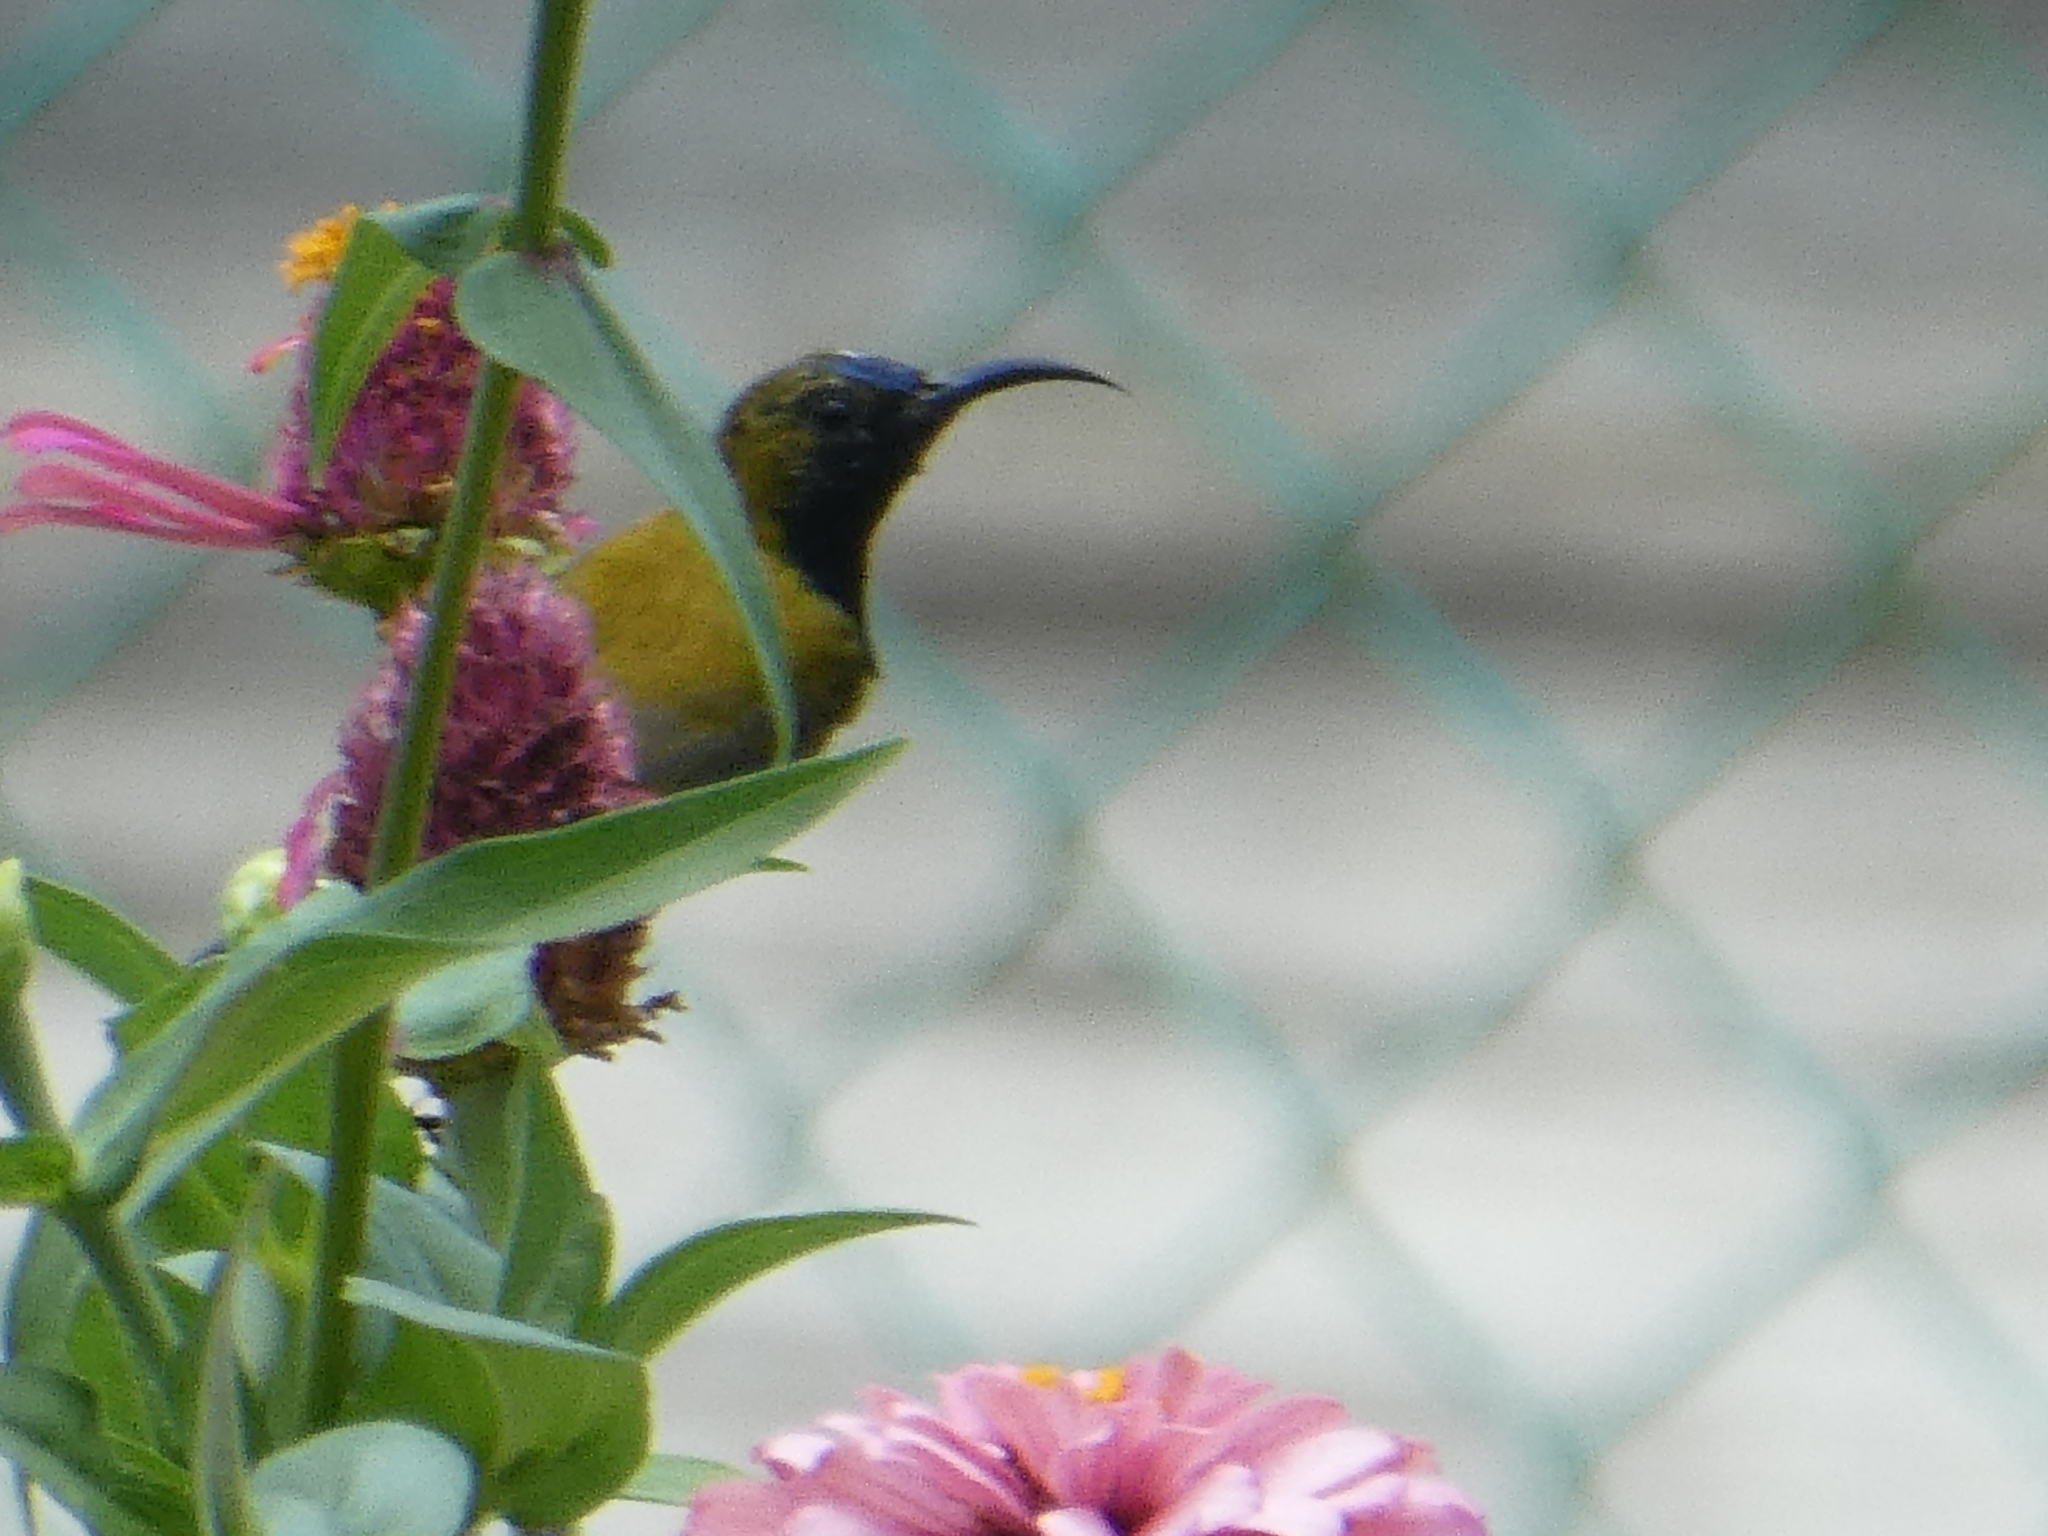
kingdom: Animalia
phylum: Chordata
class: Aves
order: Passeriformes
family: Nectariniidae
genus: Cinnyris
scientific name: Cinnyris
